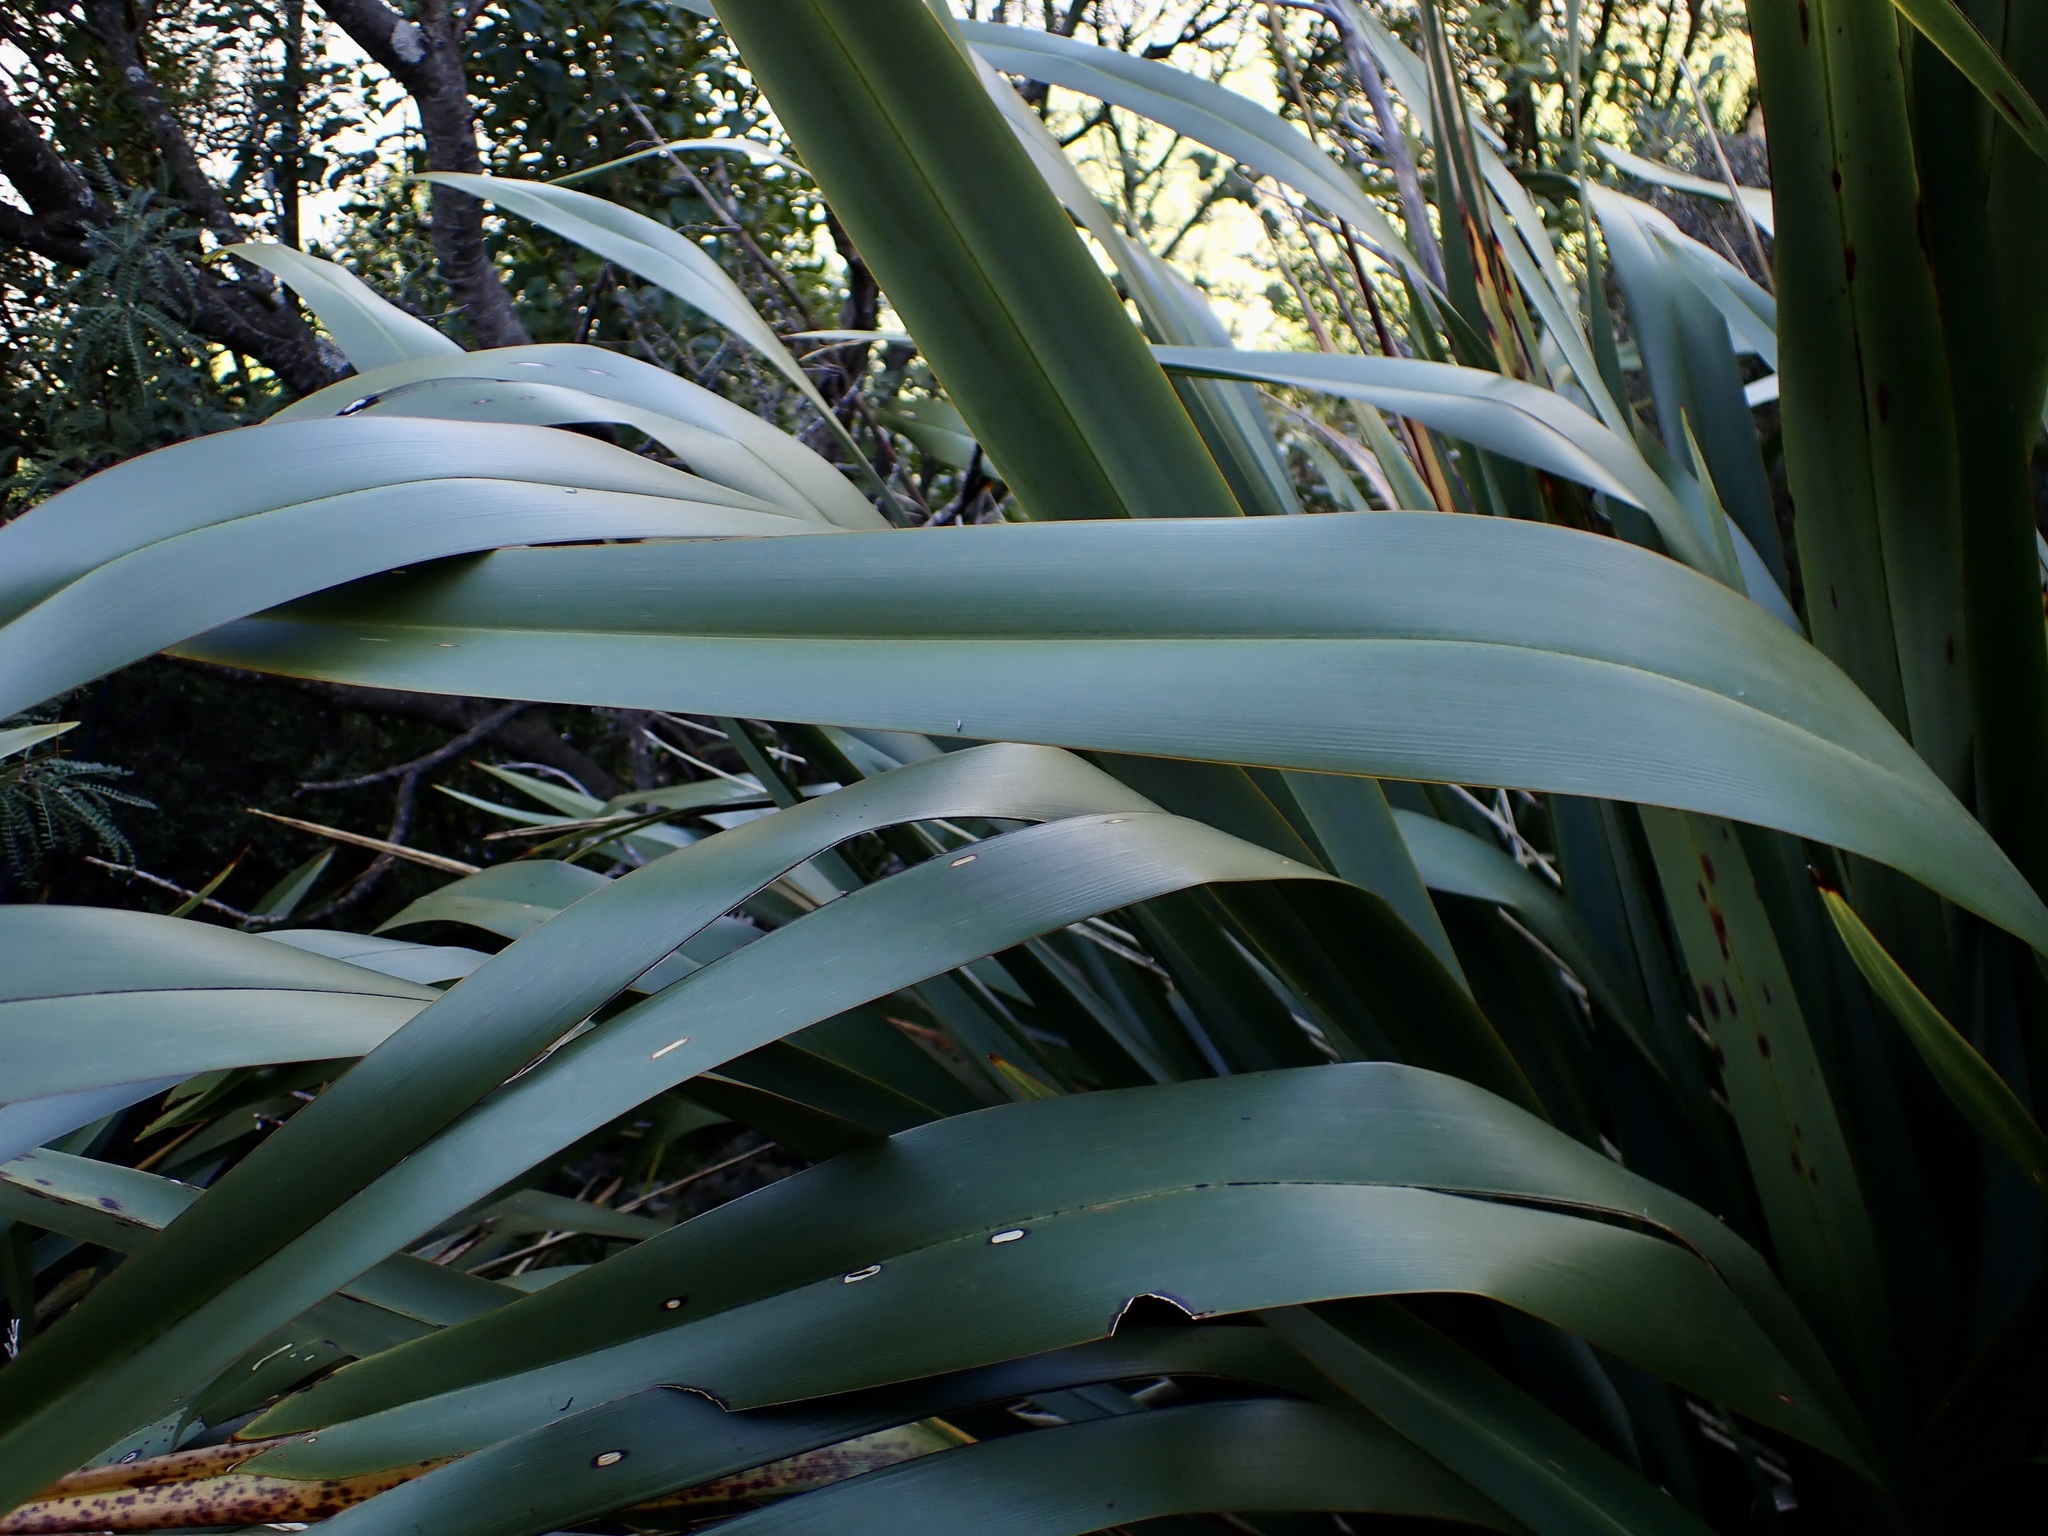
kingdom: Plantae
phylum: Tracheophyta
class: Liliopsida
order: Asparagales
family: Asphodelaceae
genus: Phormium
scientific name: Phormium tenax
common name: New zealand flax
